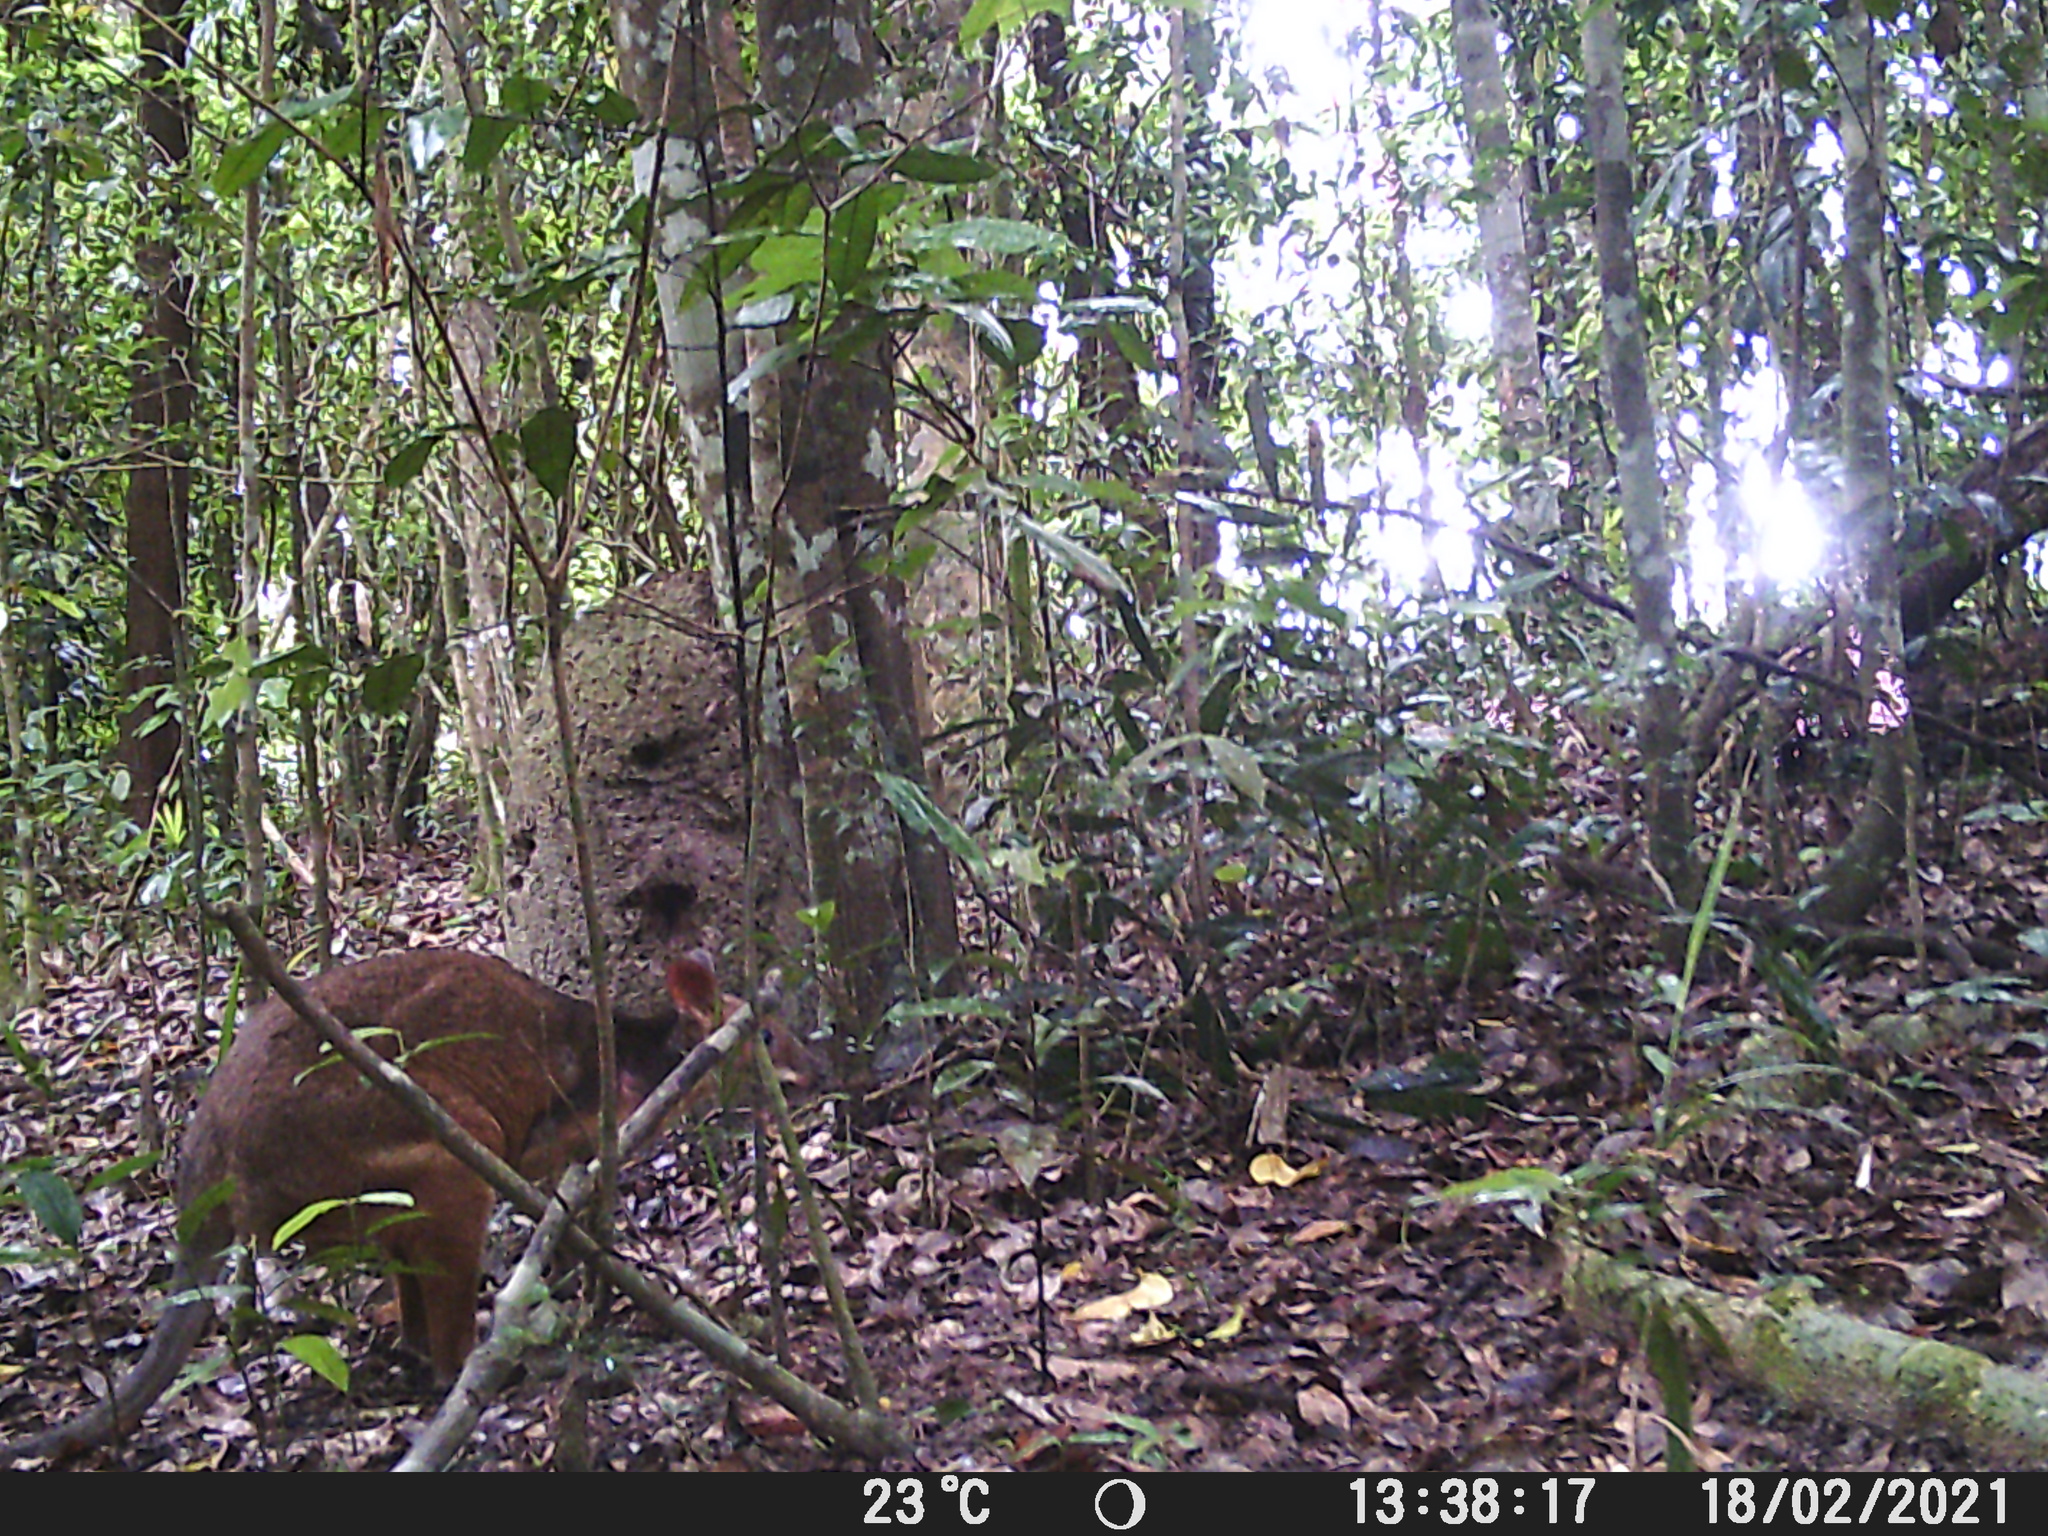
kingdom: Animalia
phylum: Chordata
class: Mammalia
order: Diprotodontia
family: Macropodidae
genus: Thylogale
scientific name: Thylogale stigmatica
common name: Red-legged pademelon
